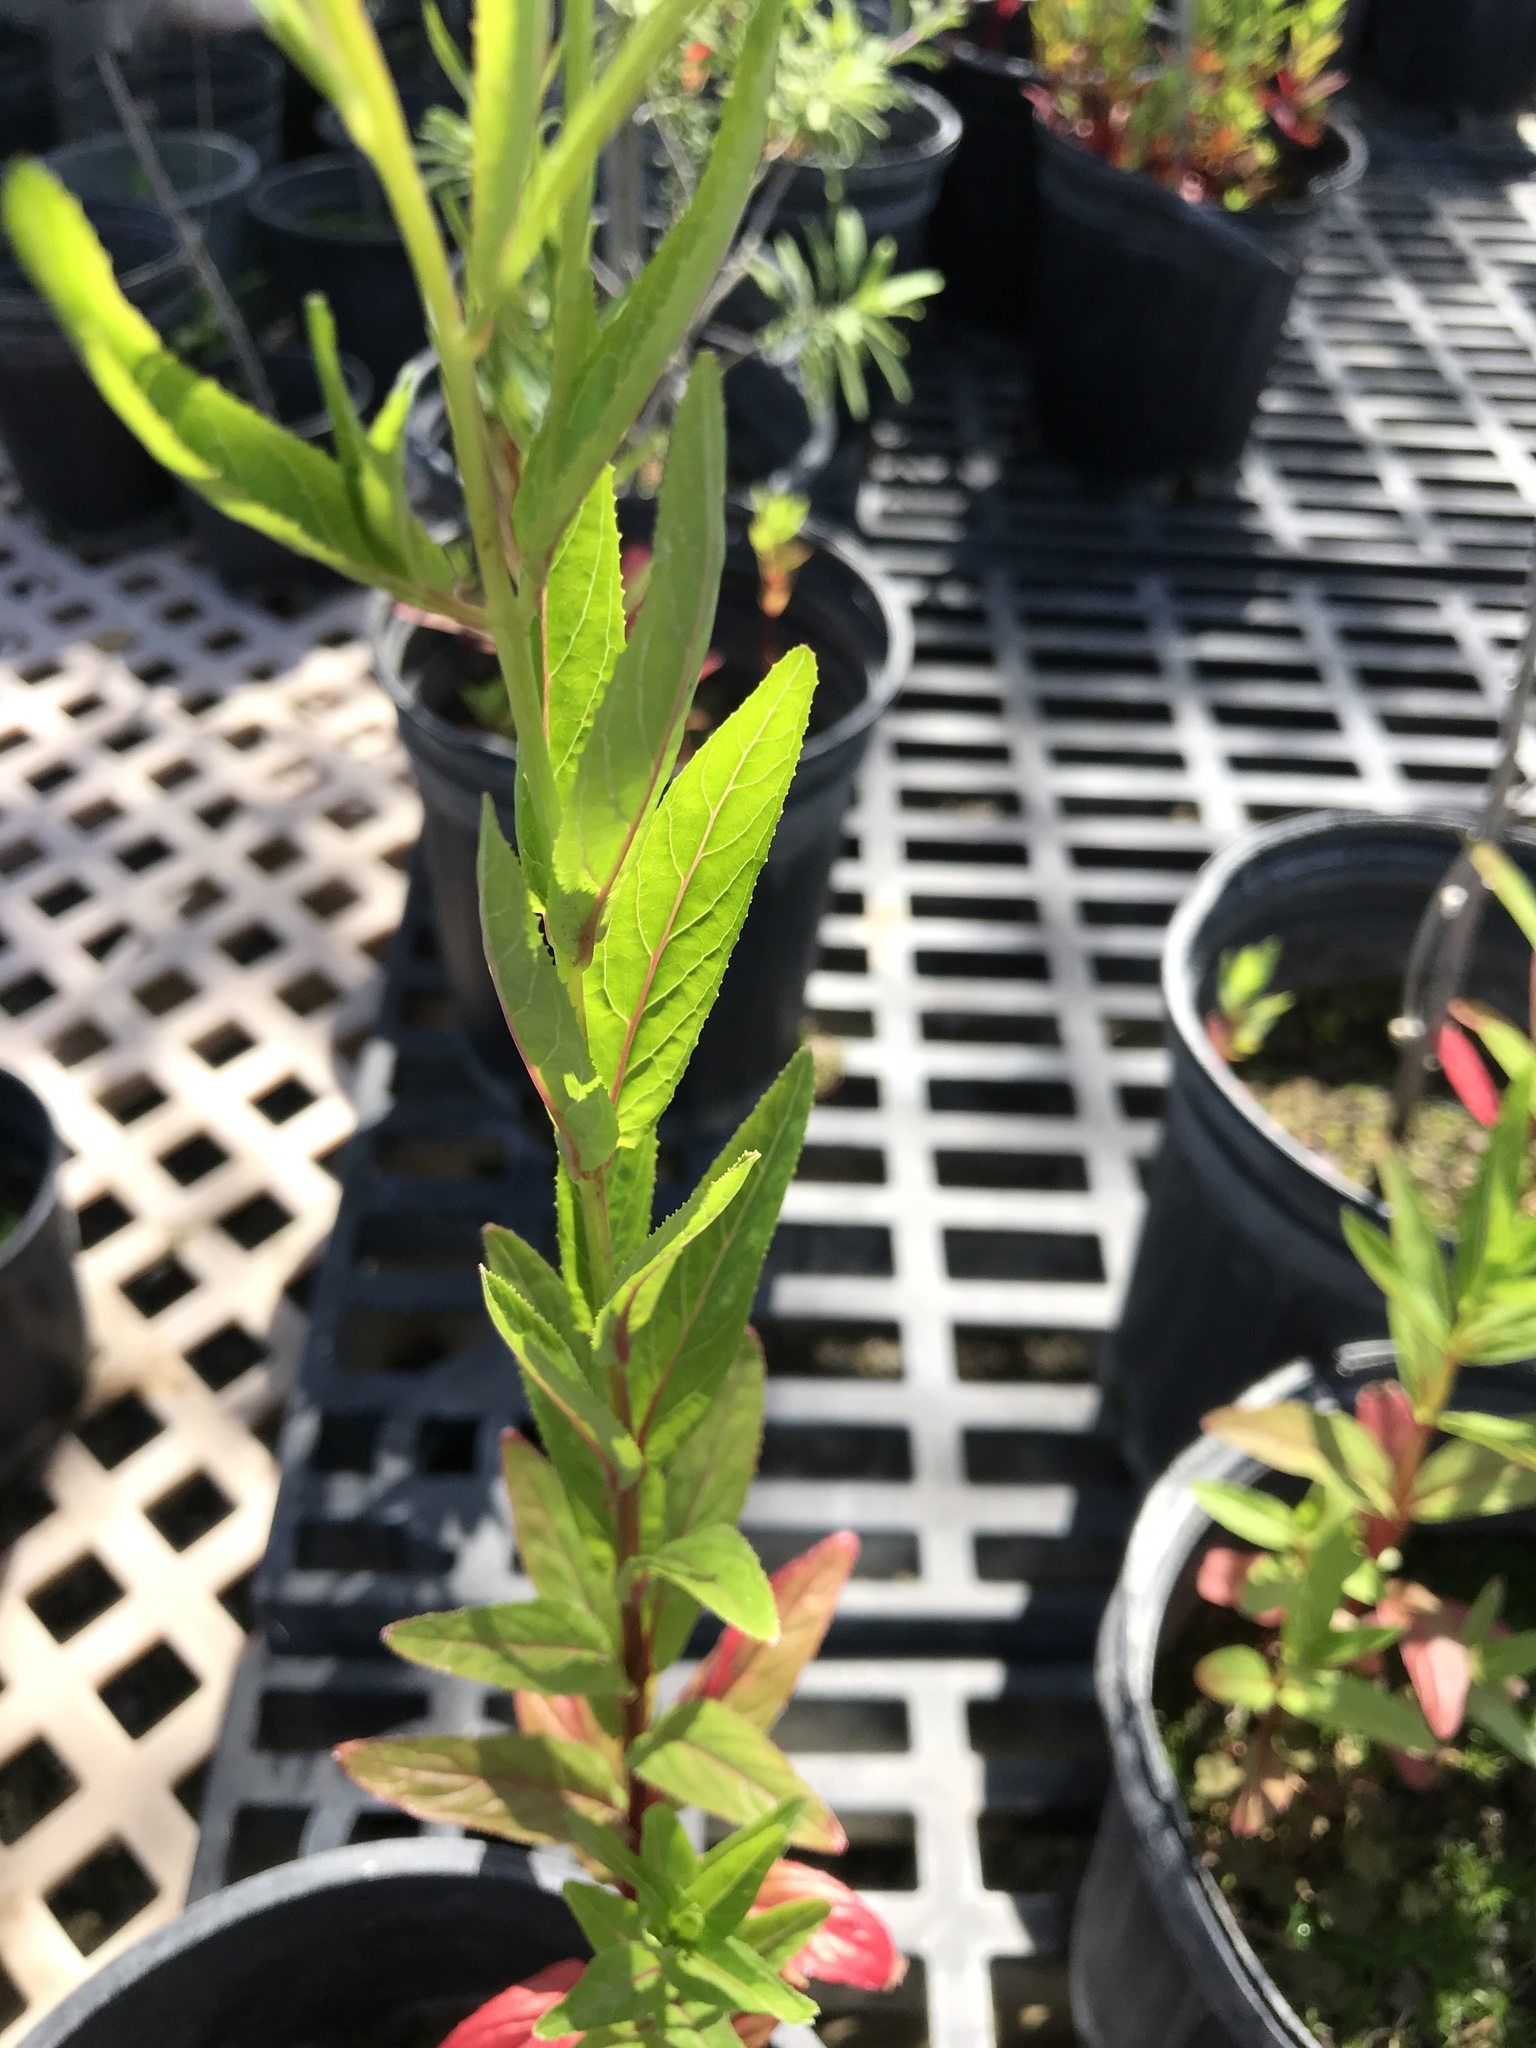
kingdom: Plantae
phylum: Tracheophyta
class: Magnoliopsida
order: Myrtales
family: Onagraceae
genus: Epilobium
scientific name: Epilobium ciliatum
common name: American willowherb
